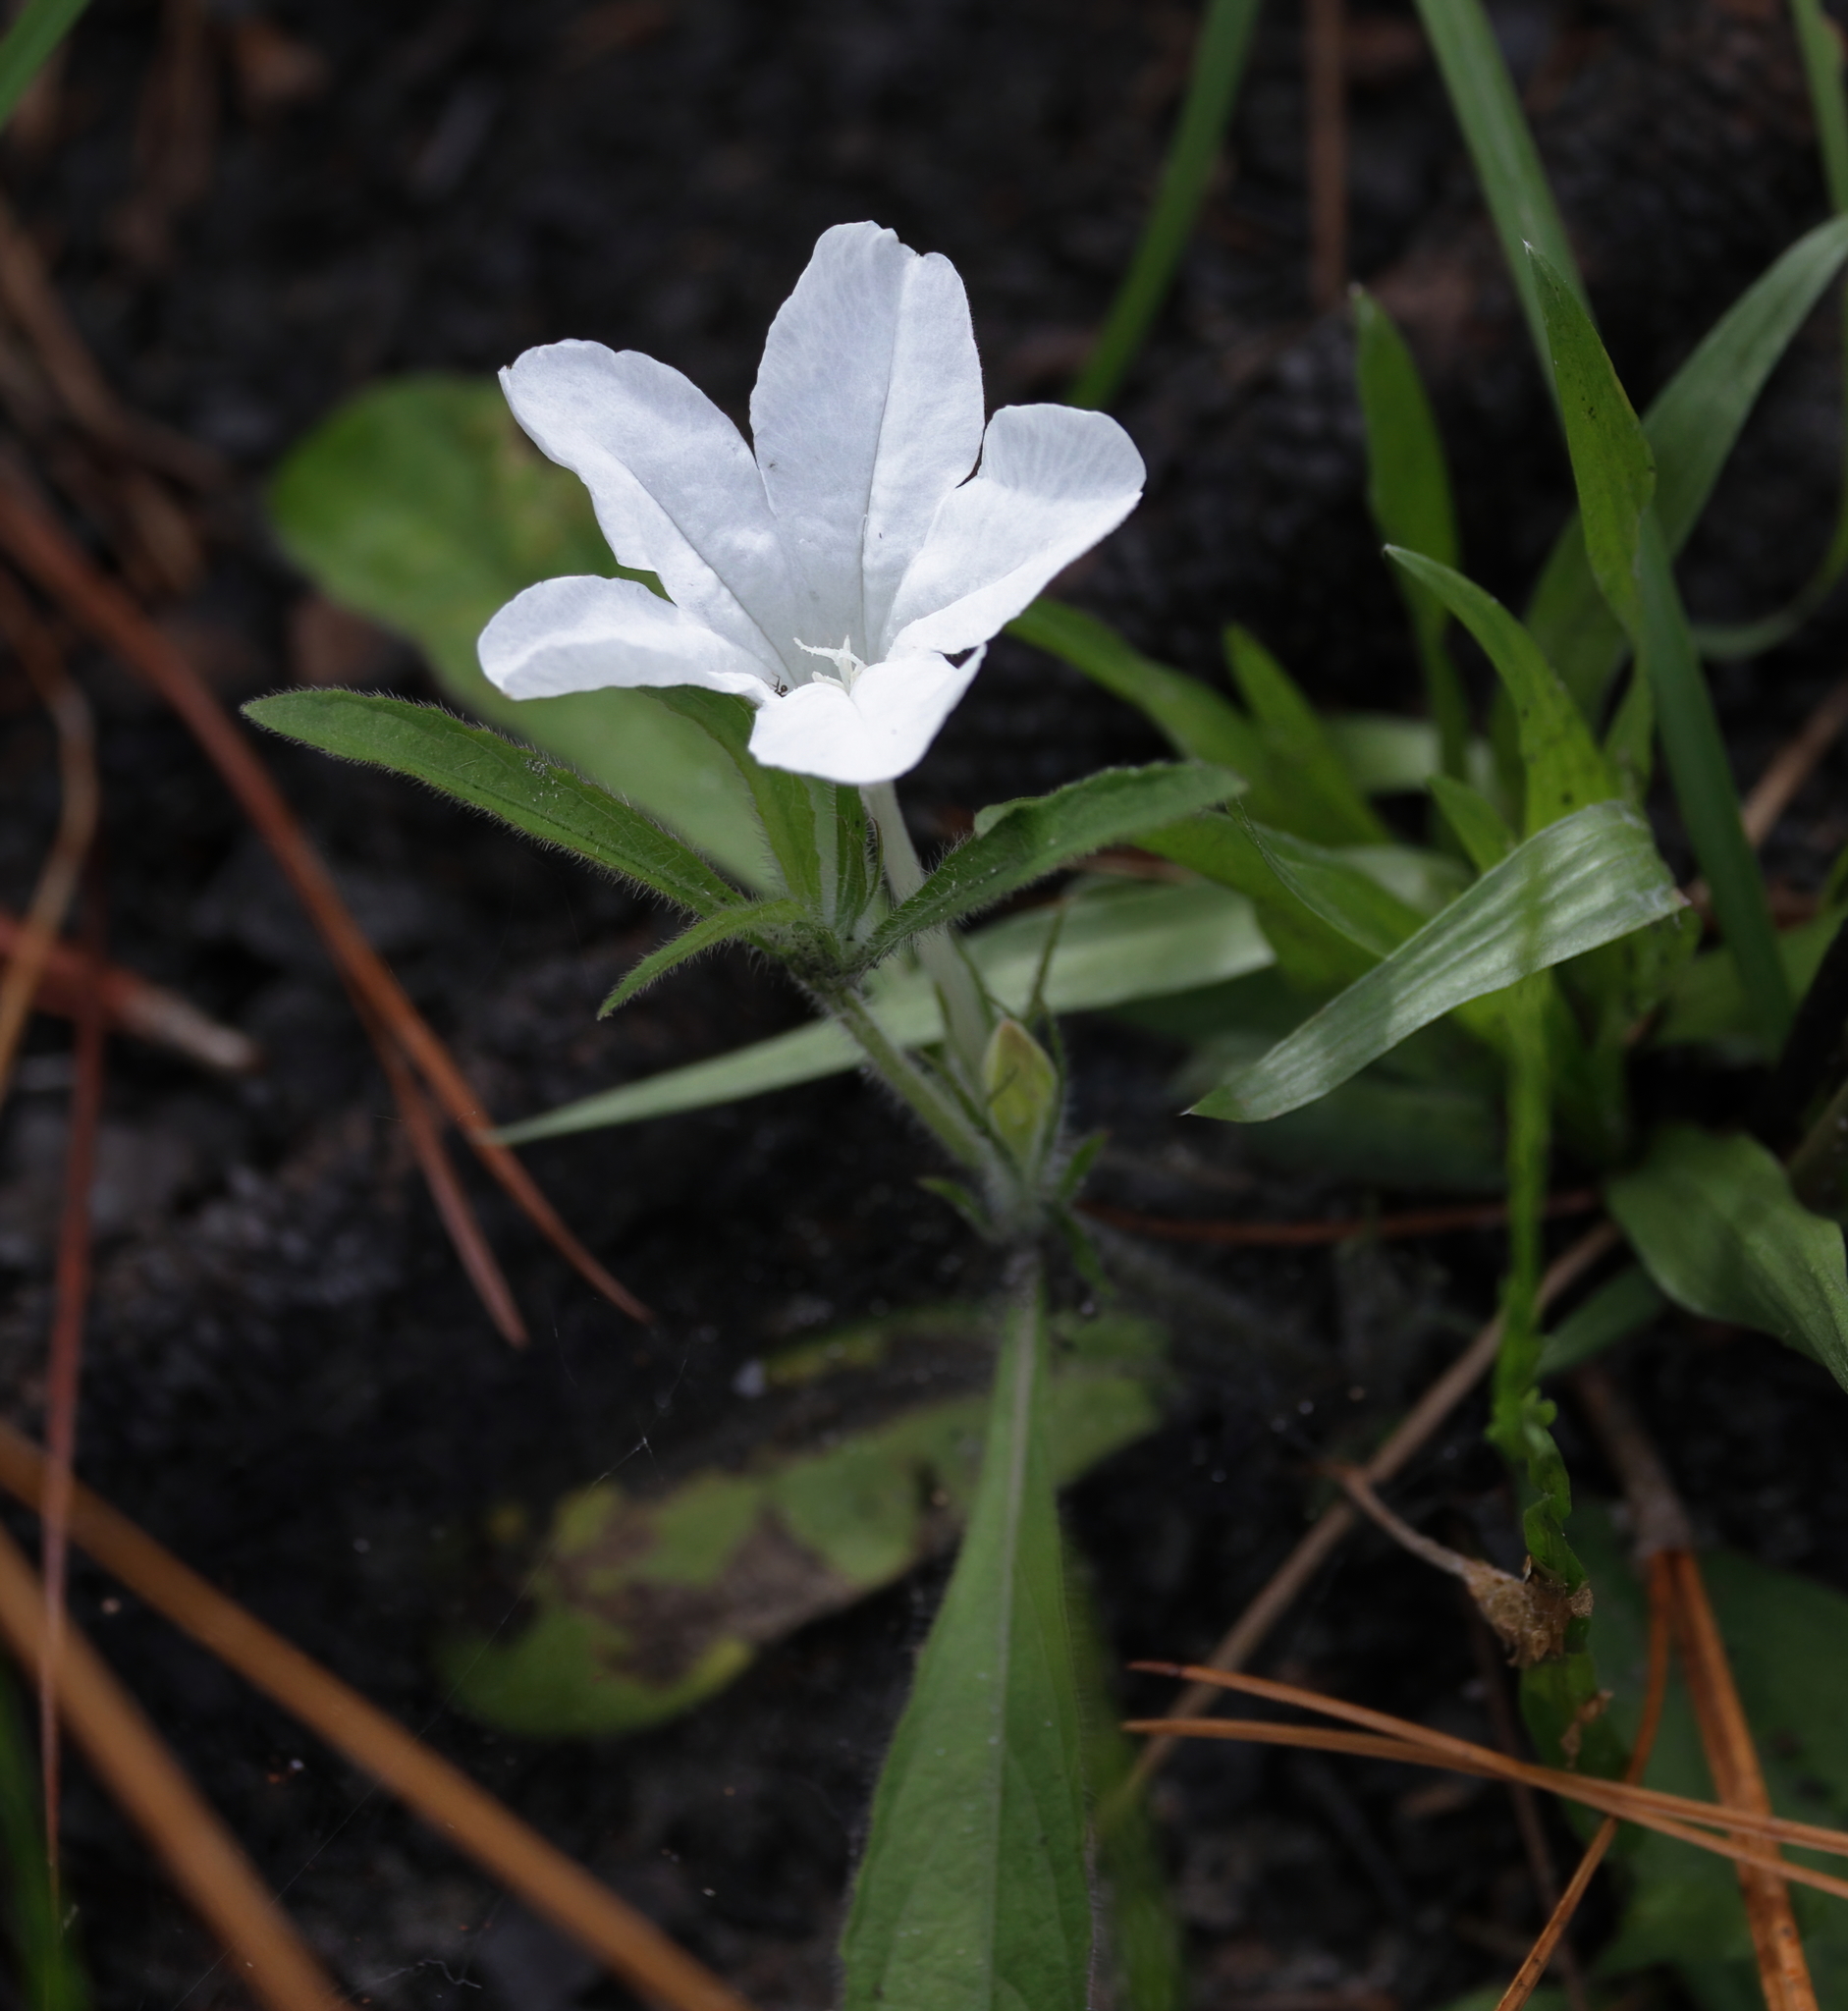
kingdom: Plantae
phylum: Tracheophyta
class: Magnoliopsida
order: Lamiales
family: Acanthaceae
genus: Ruellia
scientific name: Ruellia caroliniensis
